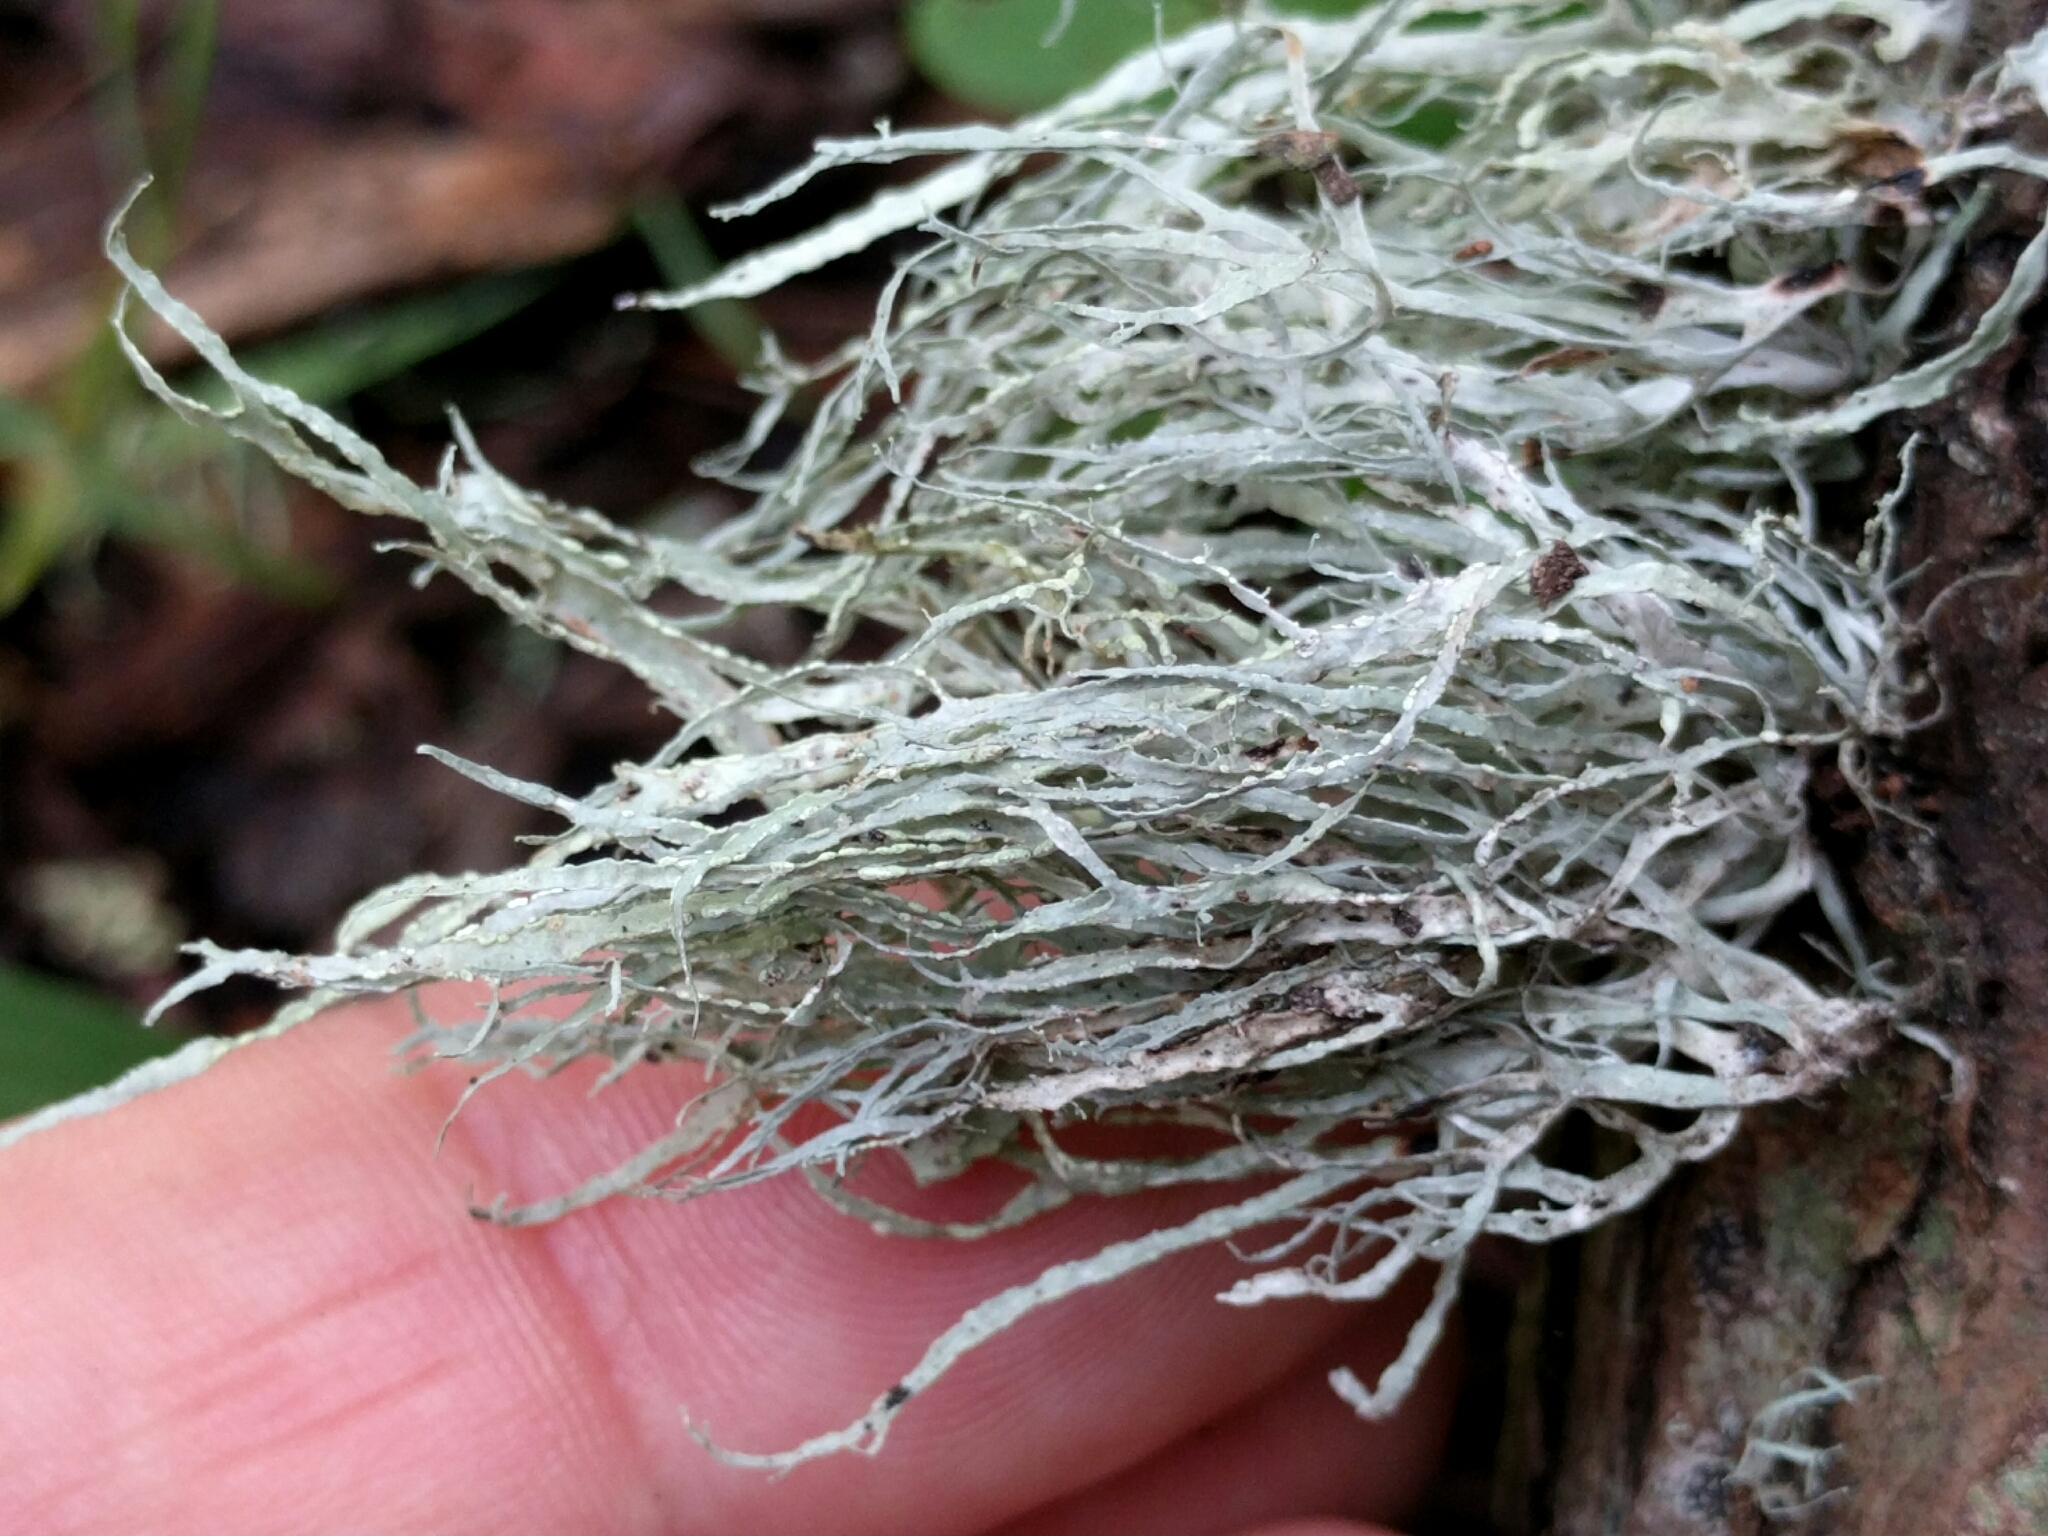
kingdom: Fungi
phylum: Ascomycota
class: Lecanoromycetes
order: Lecanorales
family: Ramalinaceae
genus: Ramalina
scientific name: Ramalina farinacea
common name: Farinose cartilage lichen
